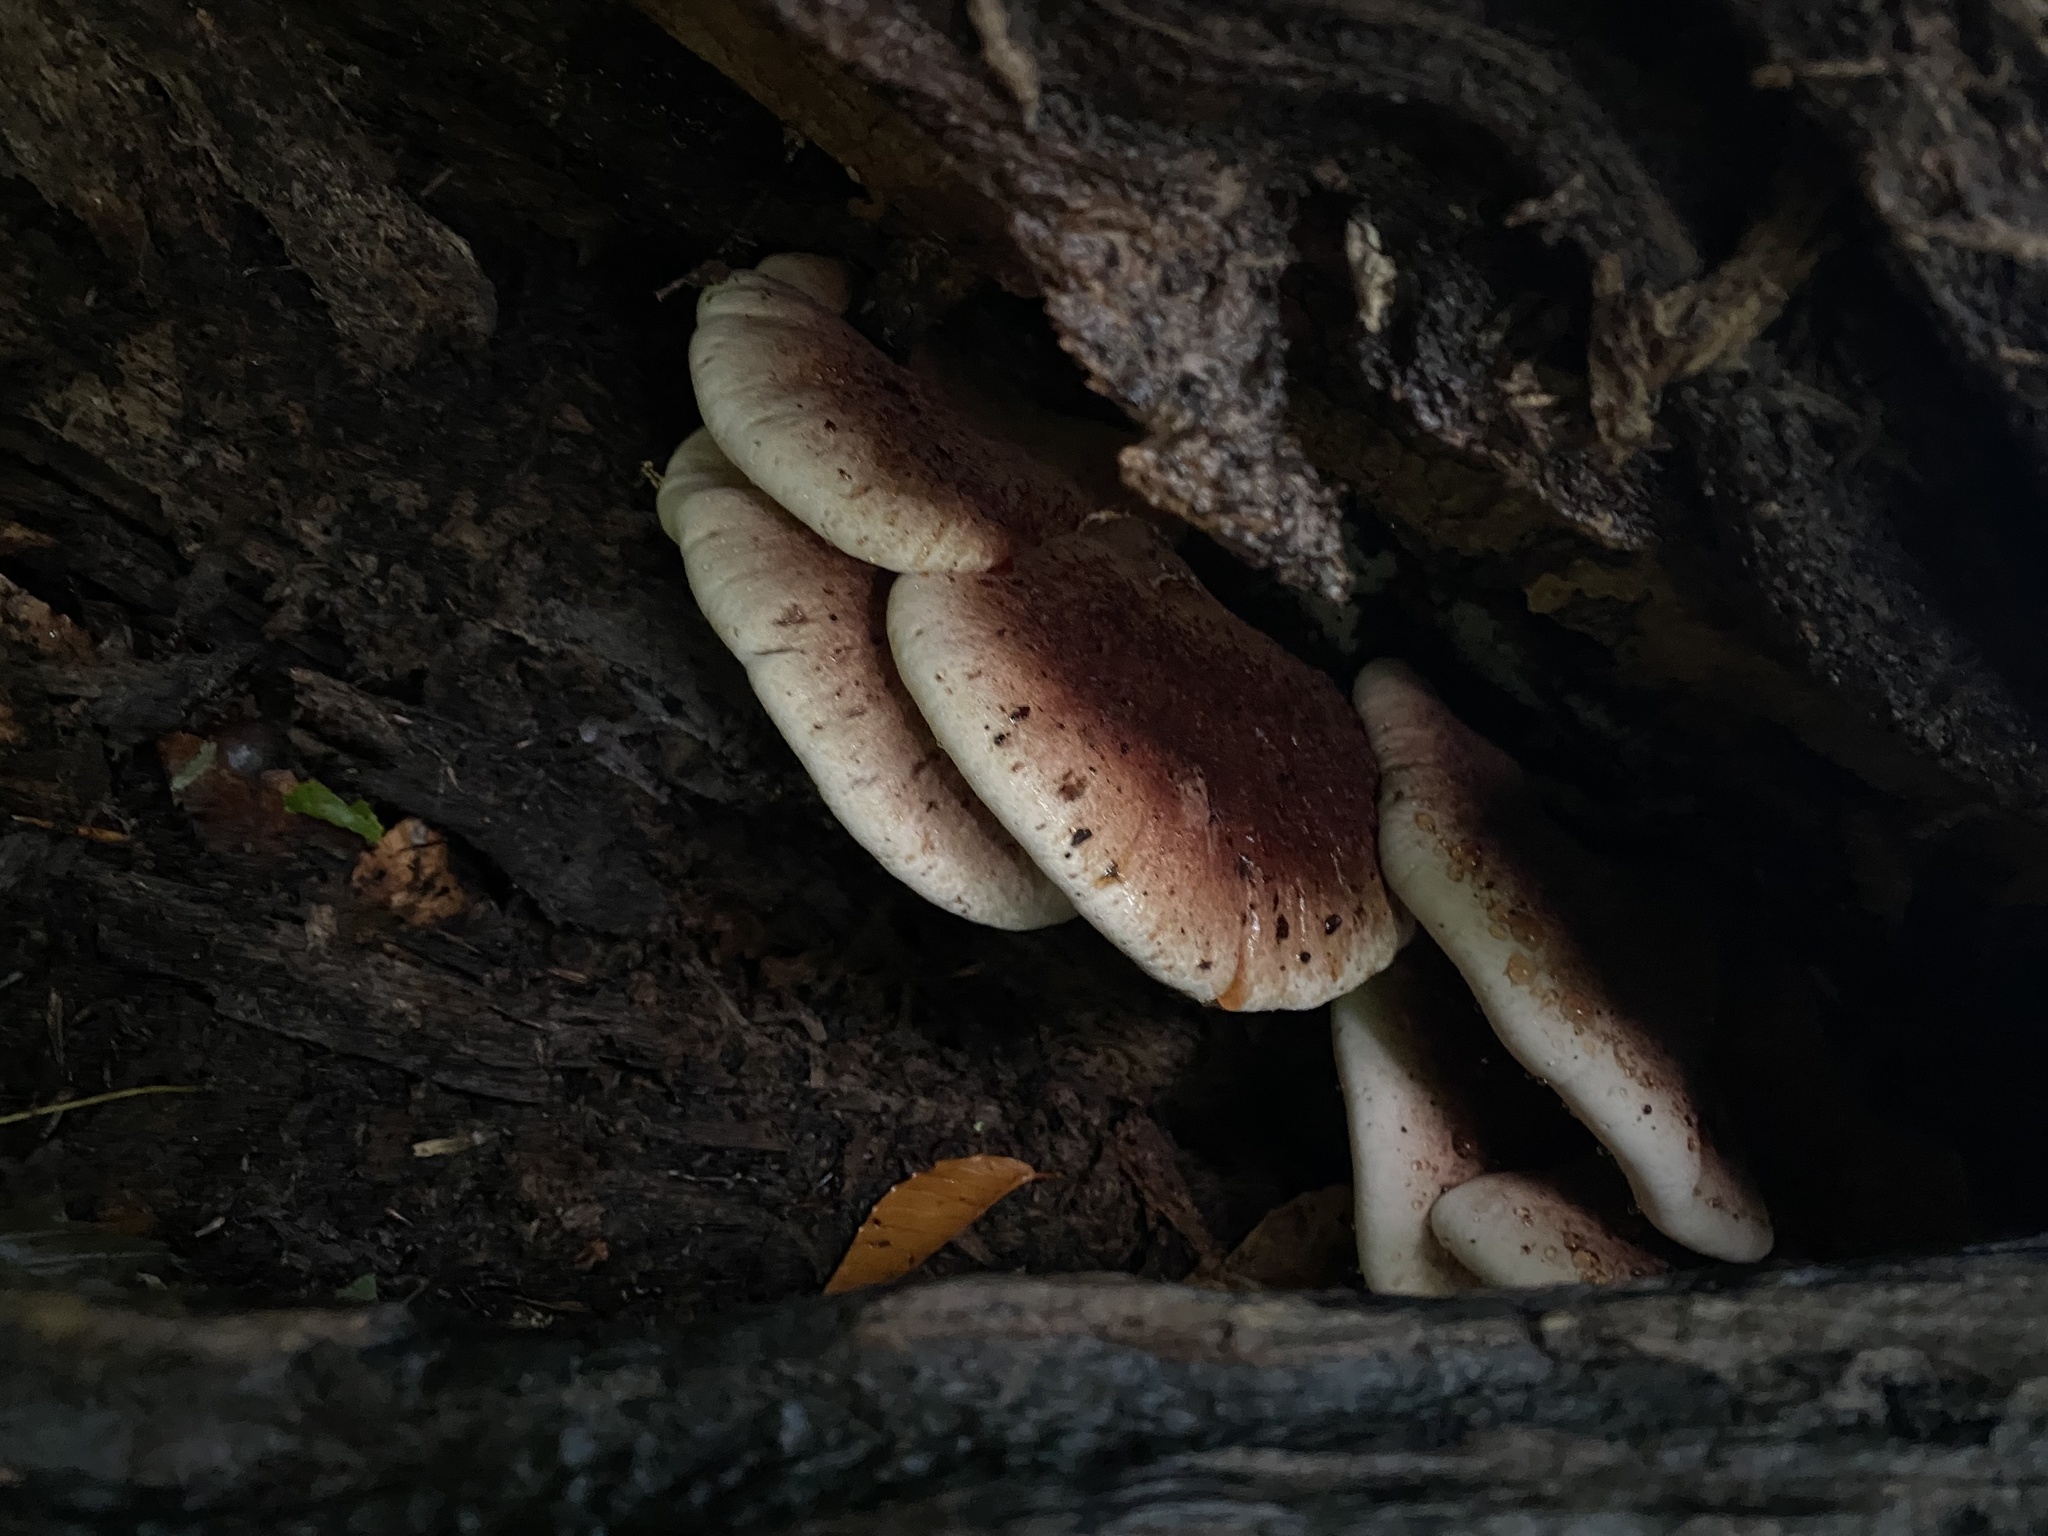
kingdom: Fungi
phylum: Basidiomycota
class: Agaricomycetes
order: Polyporales
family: Ischnodermataceae
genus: Ischnoderma
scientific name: Ischnoderma resinosum
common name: Resinous polypore
